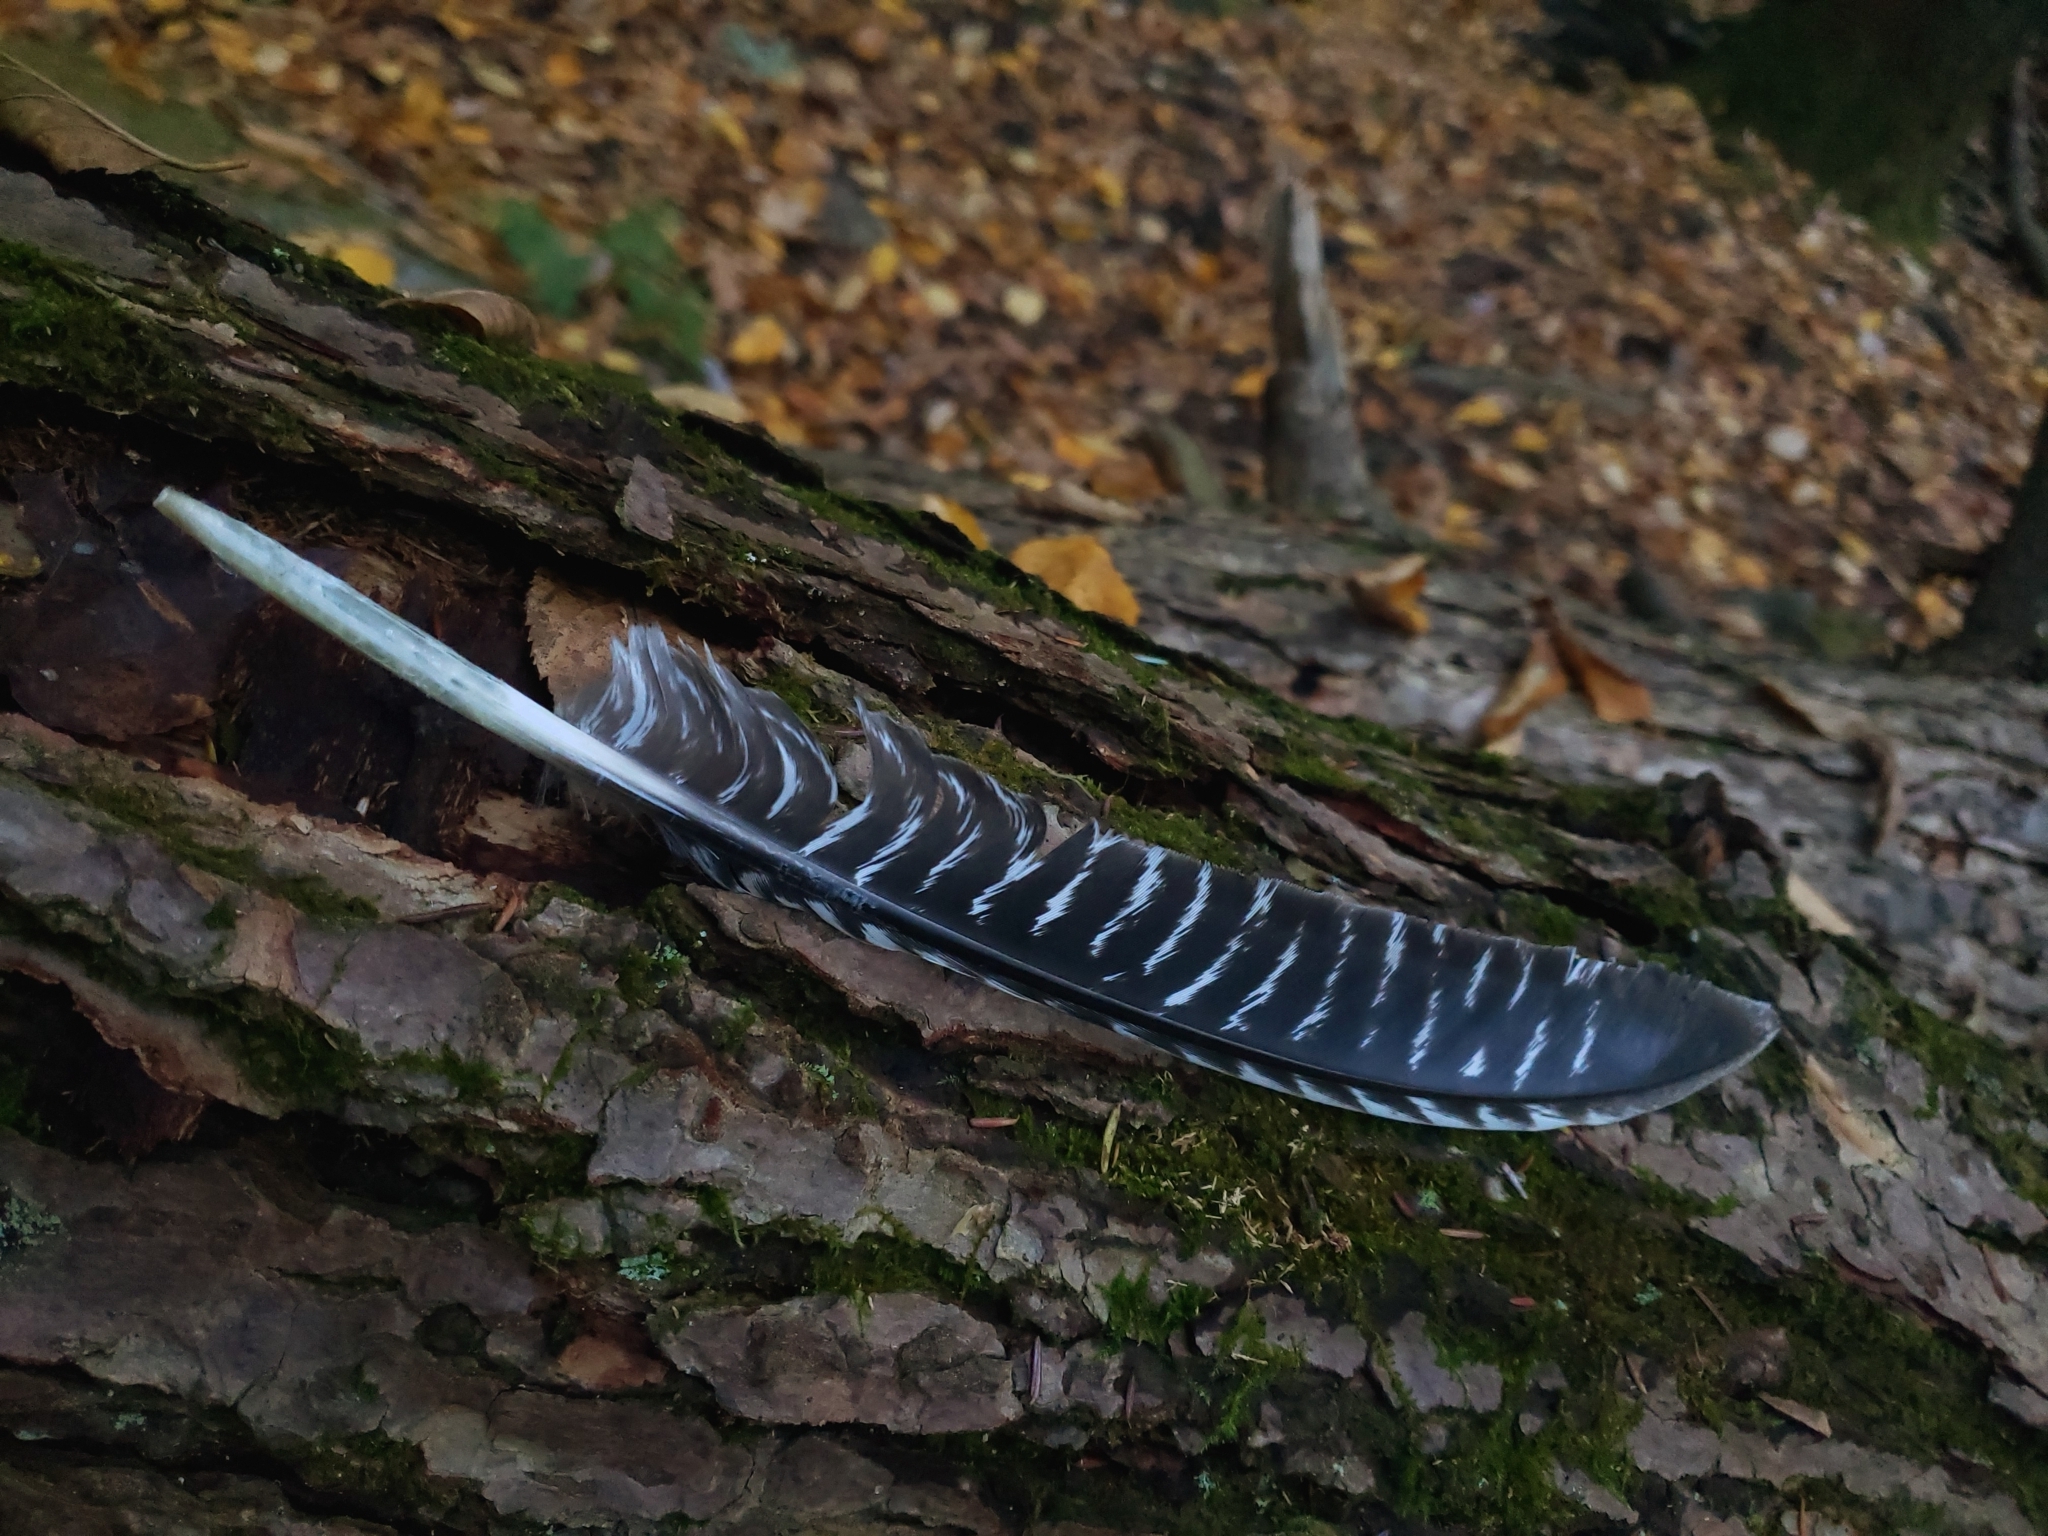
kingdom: Animalia
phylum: Chordata
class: Aves
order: Galliformes
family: Phasianidae
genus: Meleagris
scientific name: Meleagris gallopavo
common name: Wild turkey
